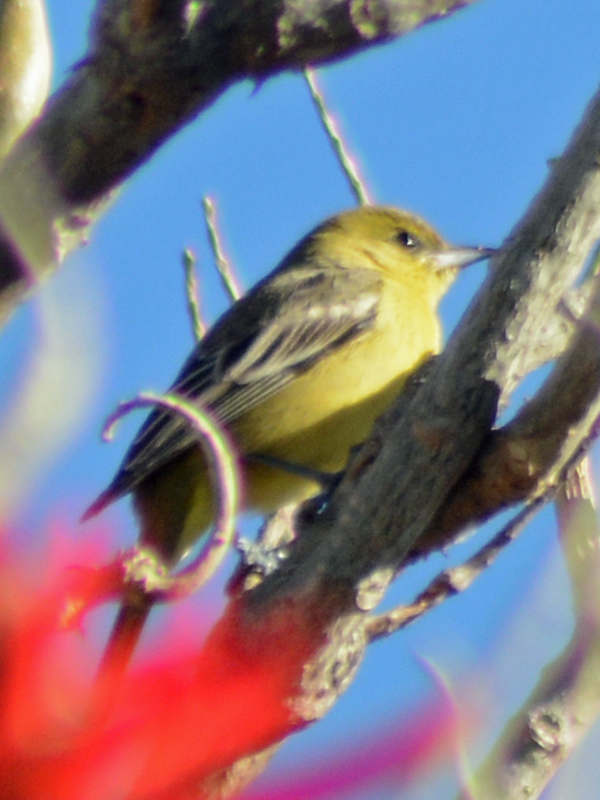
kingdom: Animalia
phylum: Chordata
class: Aves
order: Passeriformes
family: Cardinalidae
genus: Piranga
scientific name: Piranga ludoviciana
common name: Western tanager
